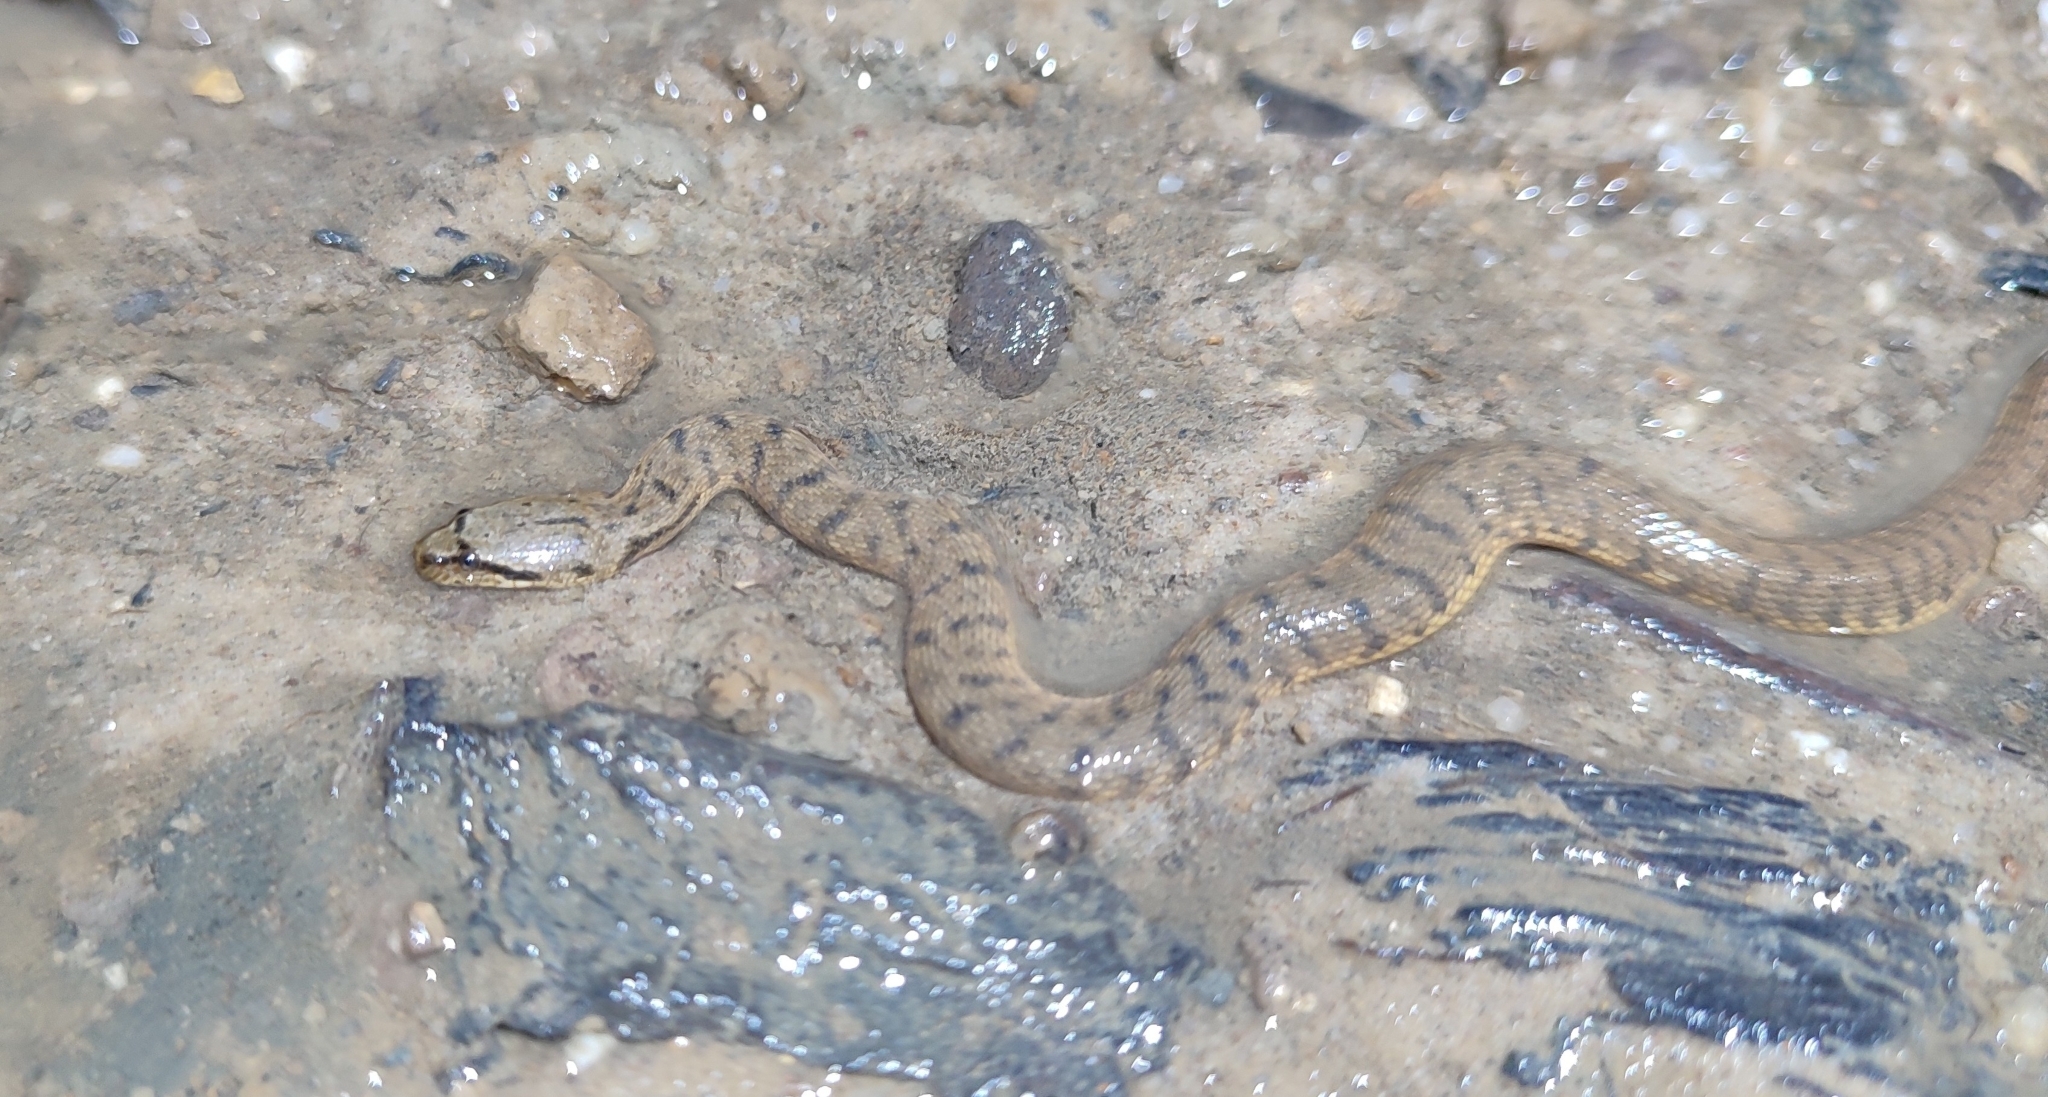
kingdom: Animalia
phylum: Chordata
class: Squamata
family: Homalopsidae
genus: Cerberus
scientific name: Cerberus schneiderii
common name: Southeast asian bockadam
